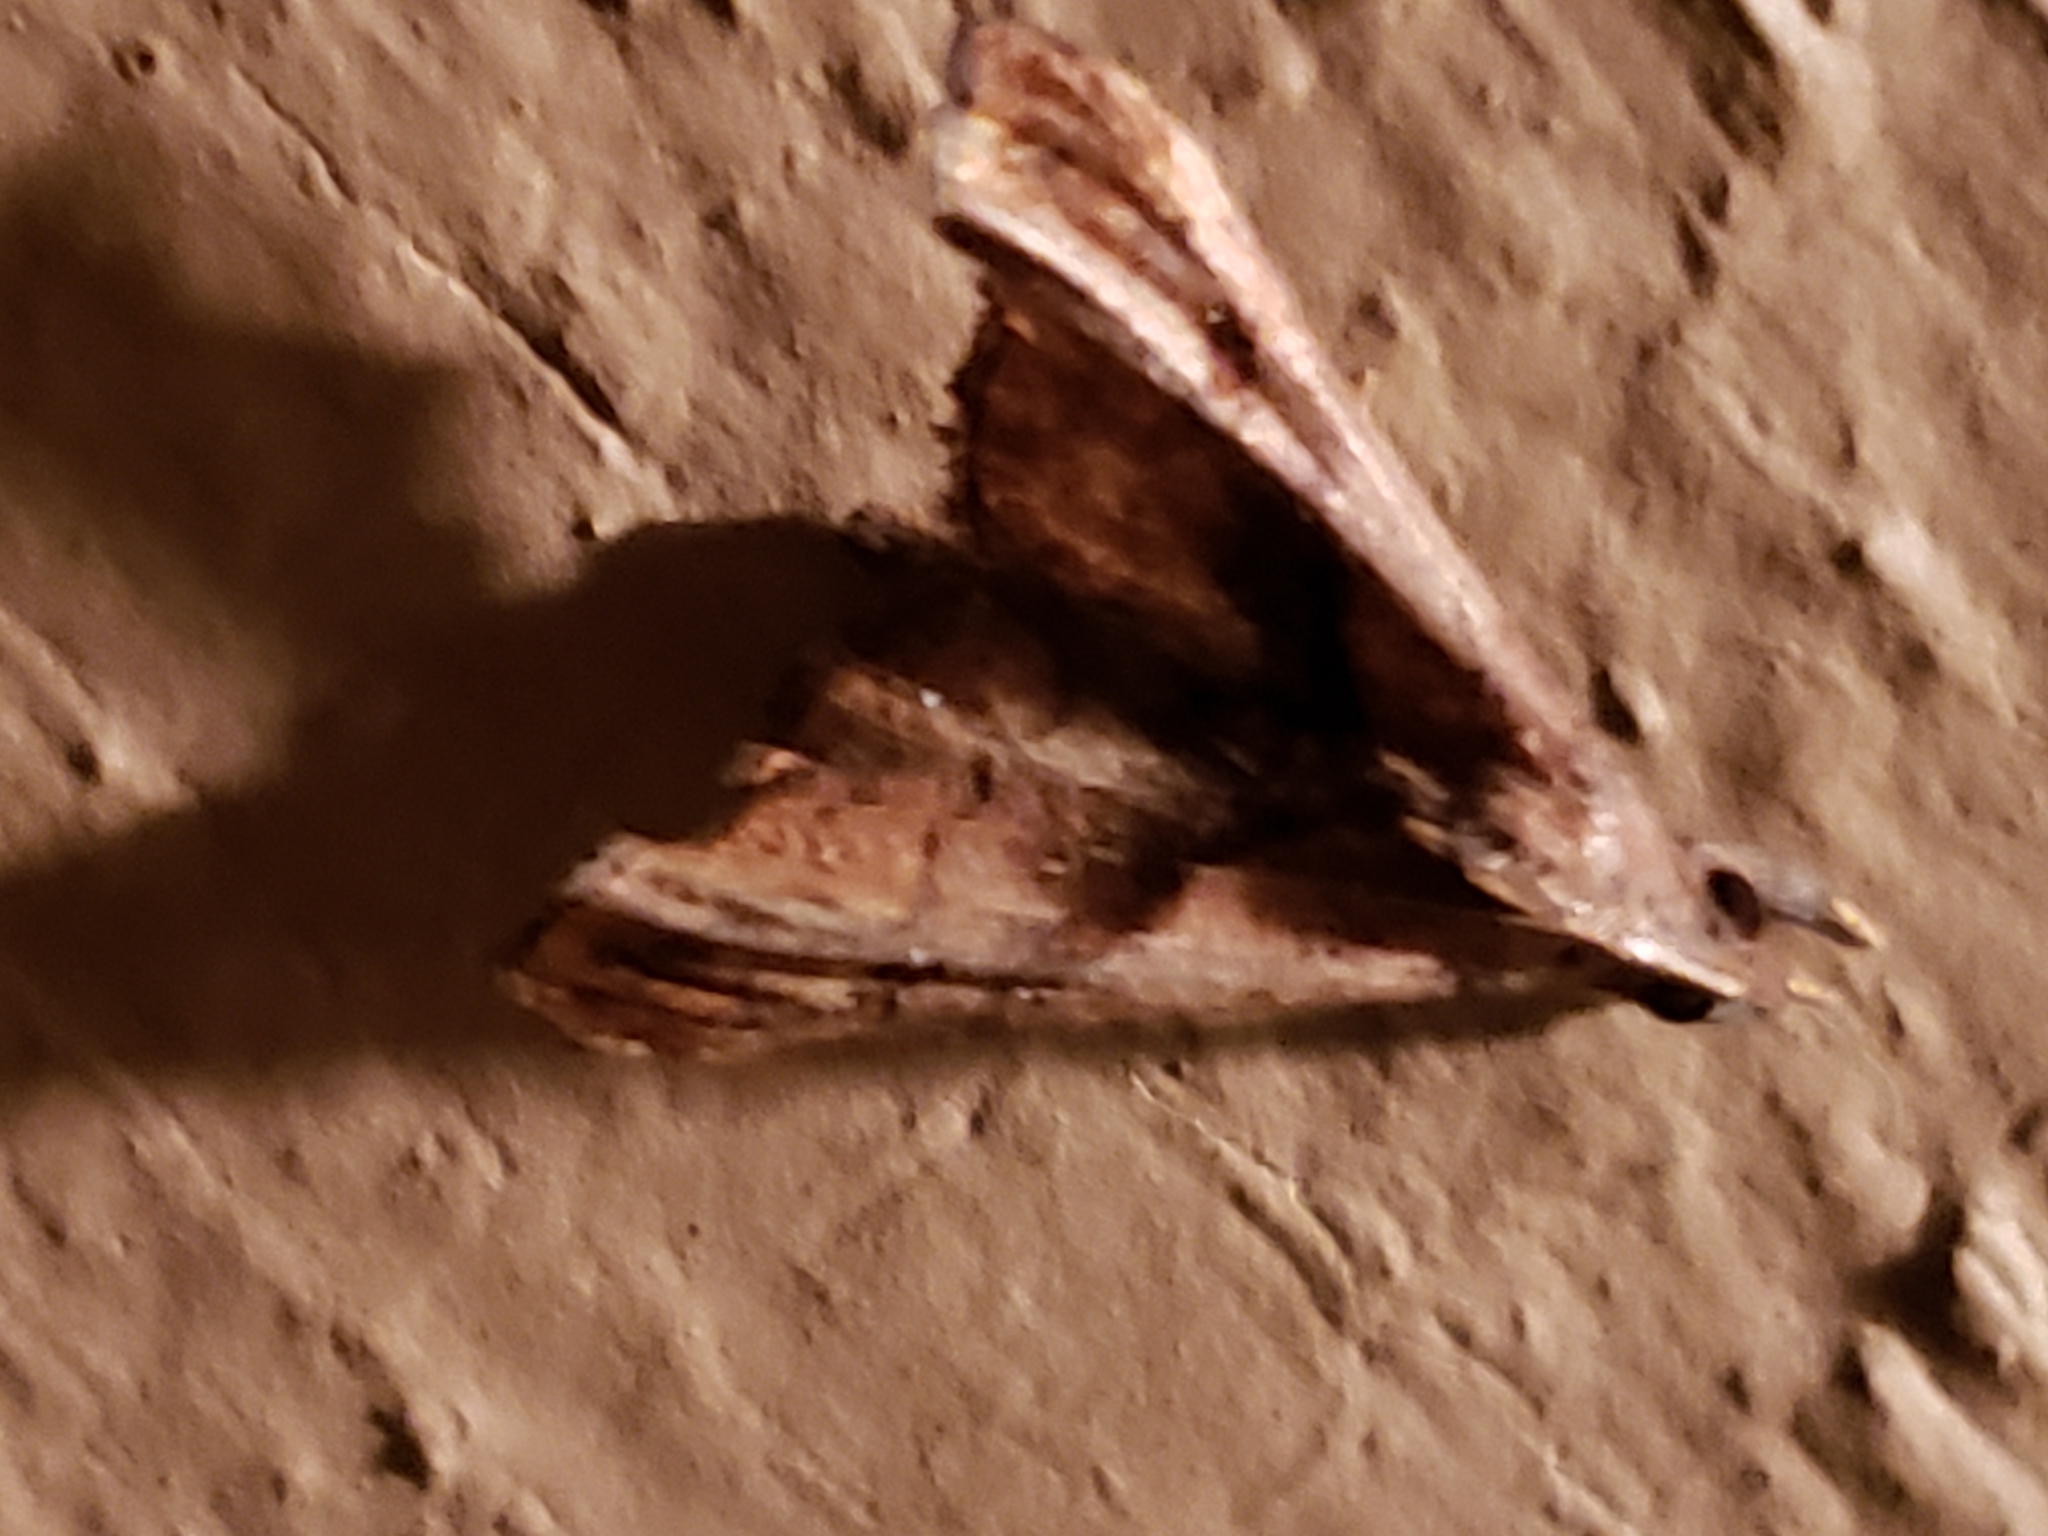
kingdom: Animalia
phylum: Arthropoda
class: Insecta
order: Lepidoptera
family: Erebidae
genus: Palthis
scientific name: Palthis angulalis
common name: Dark-spotted palthis moth
